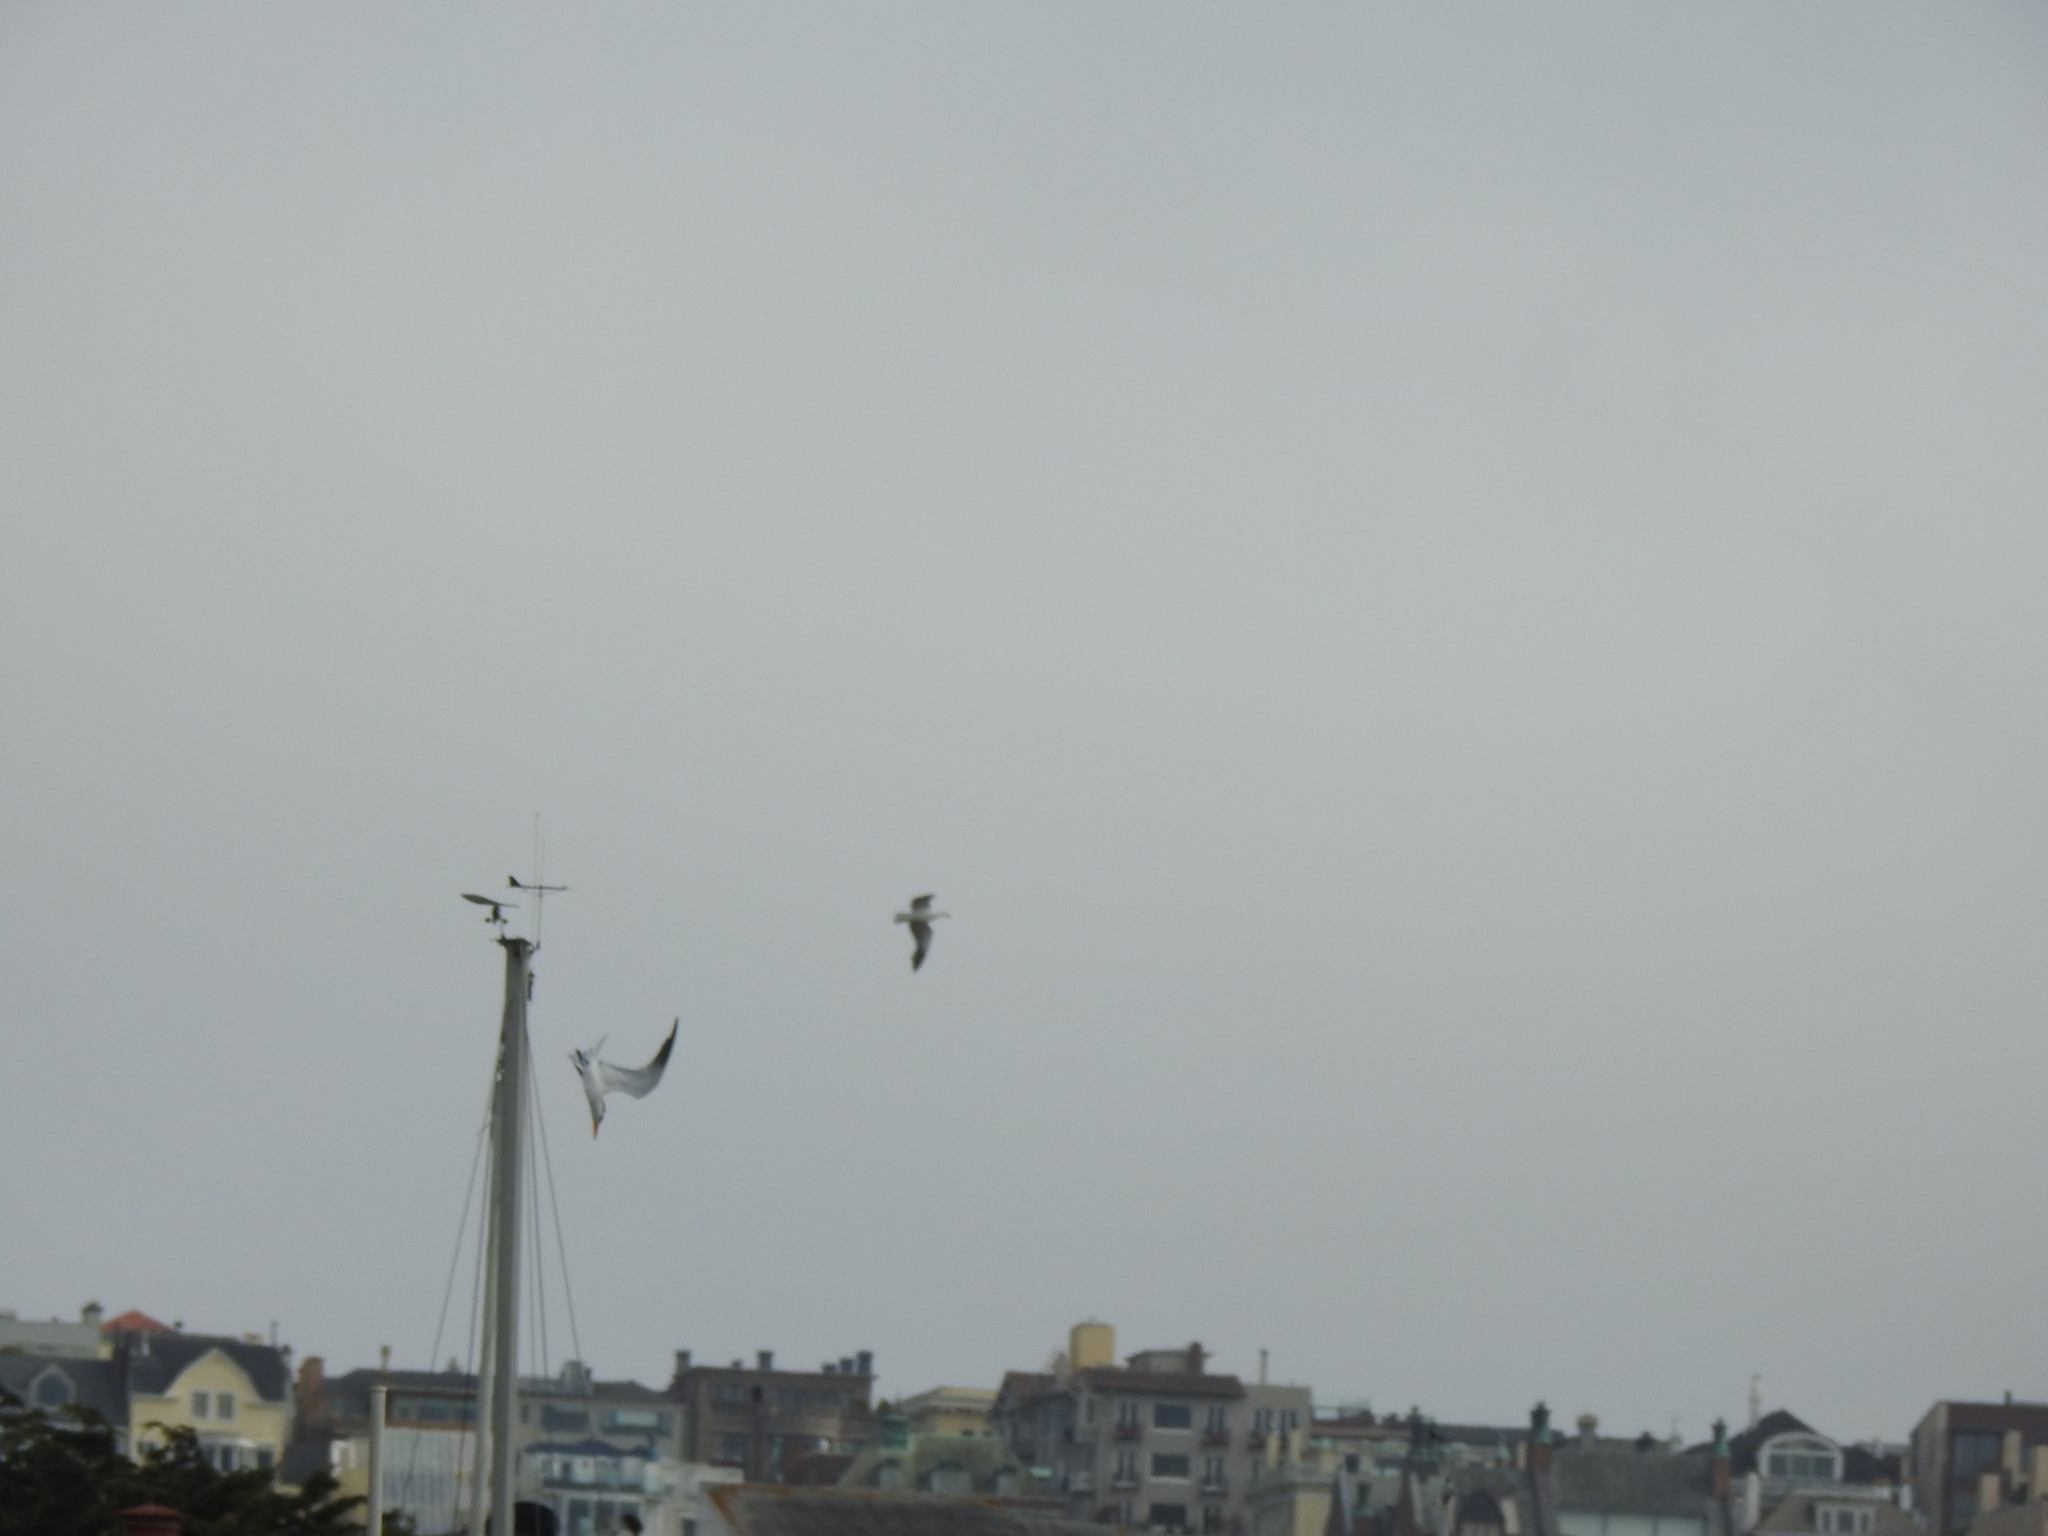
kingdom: Animalia
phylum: Chordata
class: Aves
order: Charadriiformes
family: Laridae
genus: Thalasseus
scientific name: Thalasseus elegans
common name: Elegant tern
